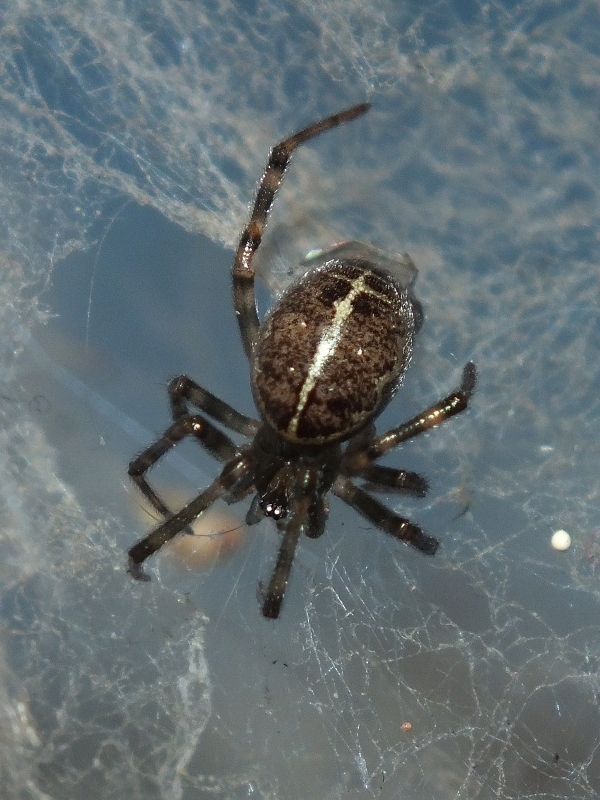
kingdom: Animalia
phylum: Arthropoda
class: Arachnida
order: Araneae
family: Theridiidae
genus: Steatoda
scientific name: Steatoda castanea
